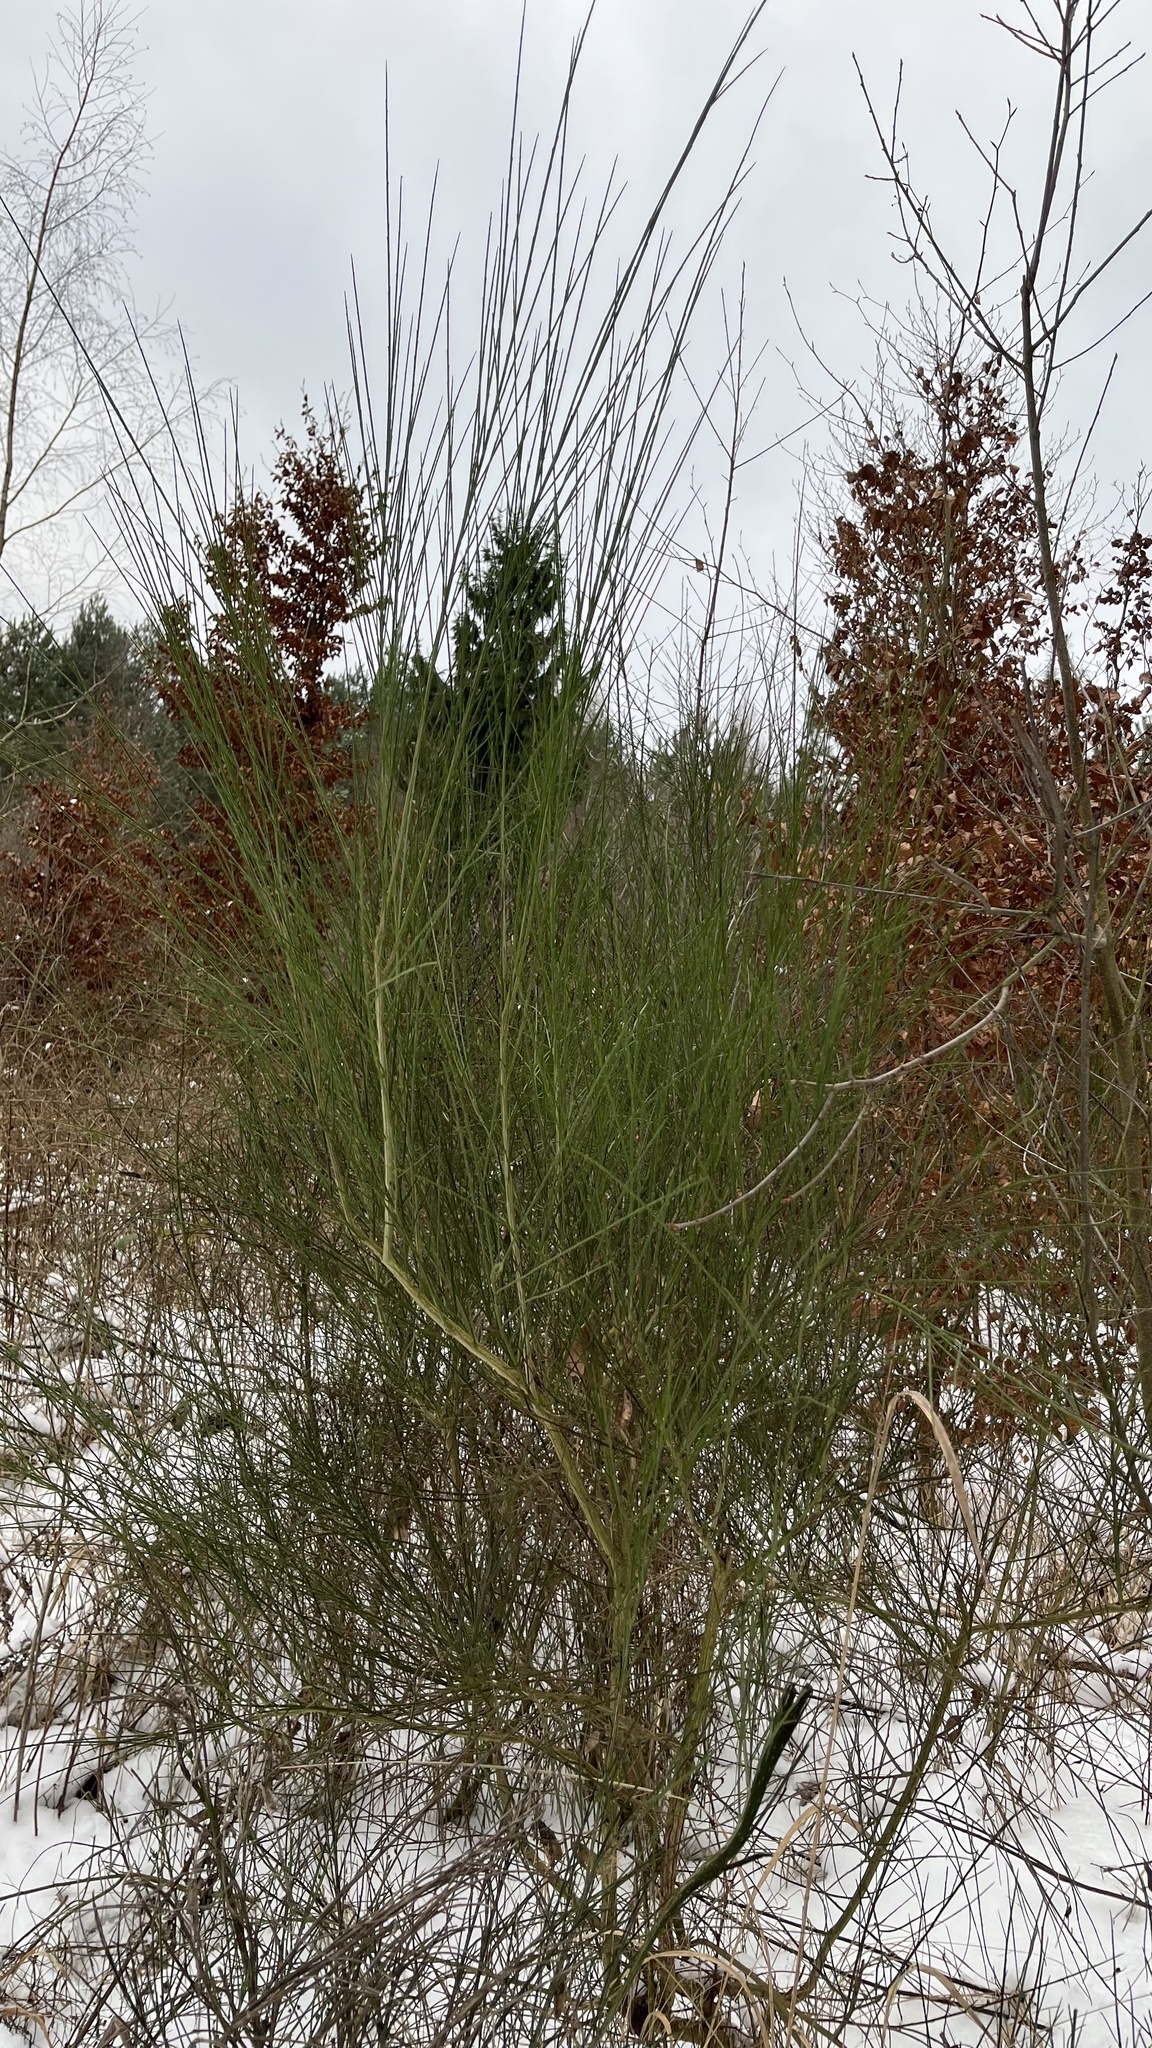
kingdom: Plantae
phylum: Tracheophyta
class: Magnoliopsida
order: Fabales
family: Fabaceae
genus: Cytisus
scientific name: Cytisus scoparius
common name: Scotch broom
